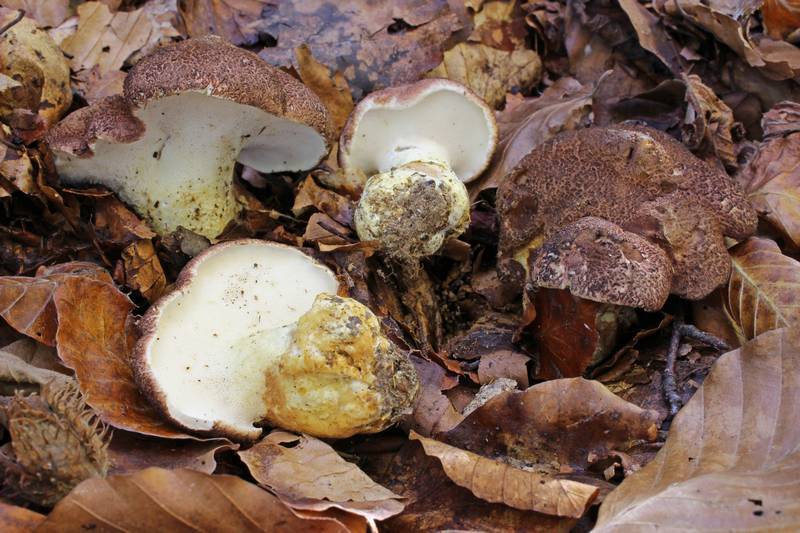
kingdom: Fungi
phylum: Basidiomycota
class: Agaricomycetes
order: Russulales
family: Albatrellaceae
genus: Scutiger
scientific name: Scutiger pes-caprae
